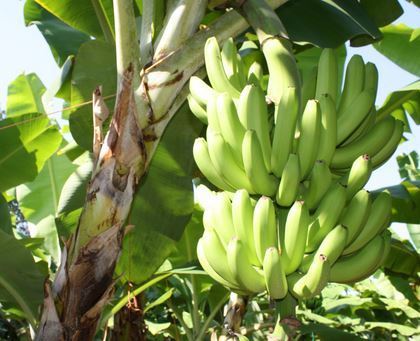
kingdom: Plantae
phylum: Tracheophyta
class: Liliopsida
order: Zingiberales
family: Musaceae
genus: Musa
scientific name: Musa acuminata
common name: Edible banana
